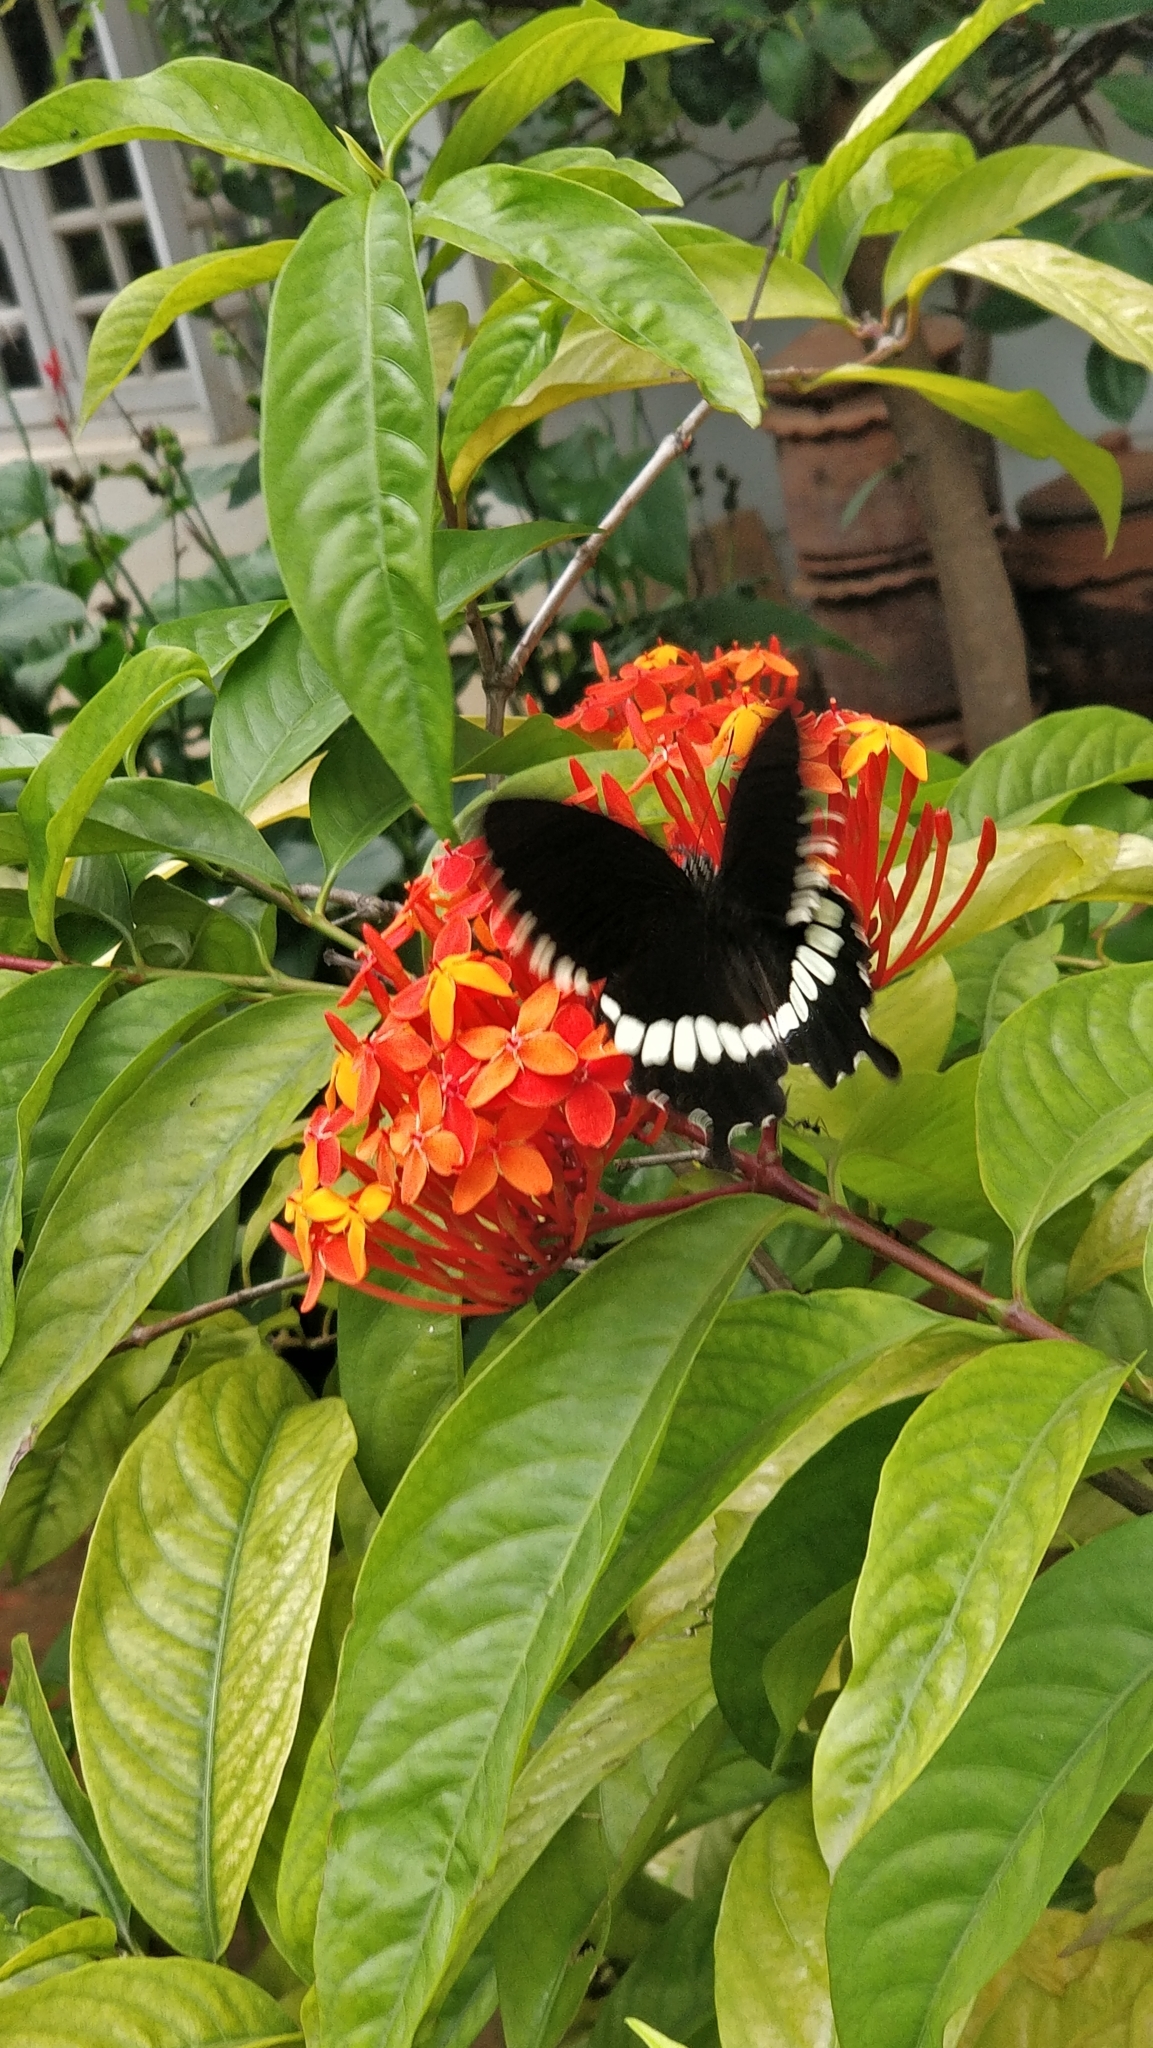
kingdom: Animalia
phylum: Arthropoda
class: Insecta
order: Lepidoptera
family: Papilionidae
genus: Papilio
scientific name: Papilio polytes
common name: Common mormon
